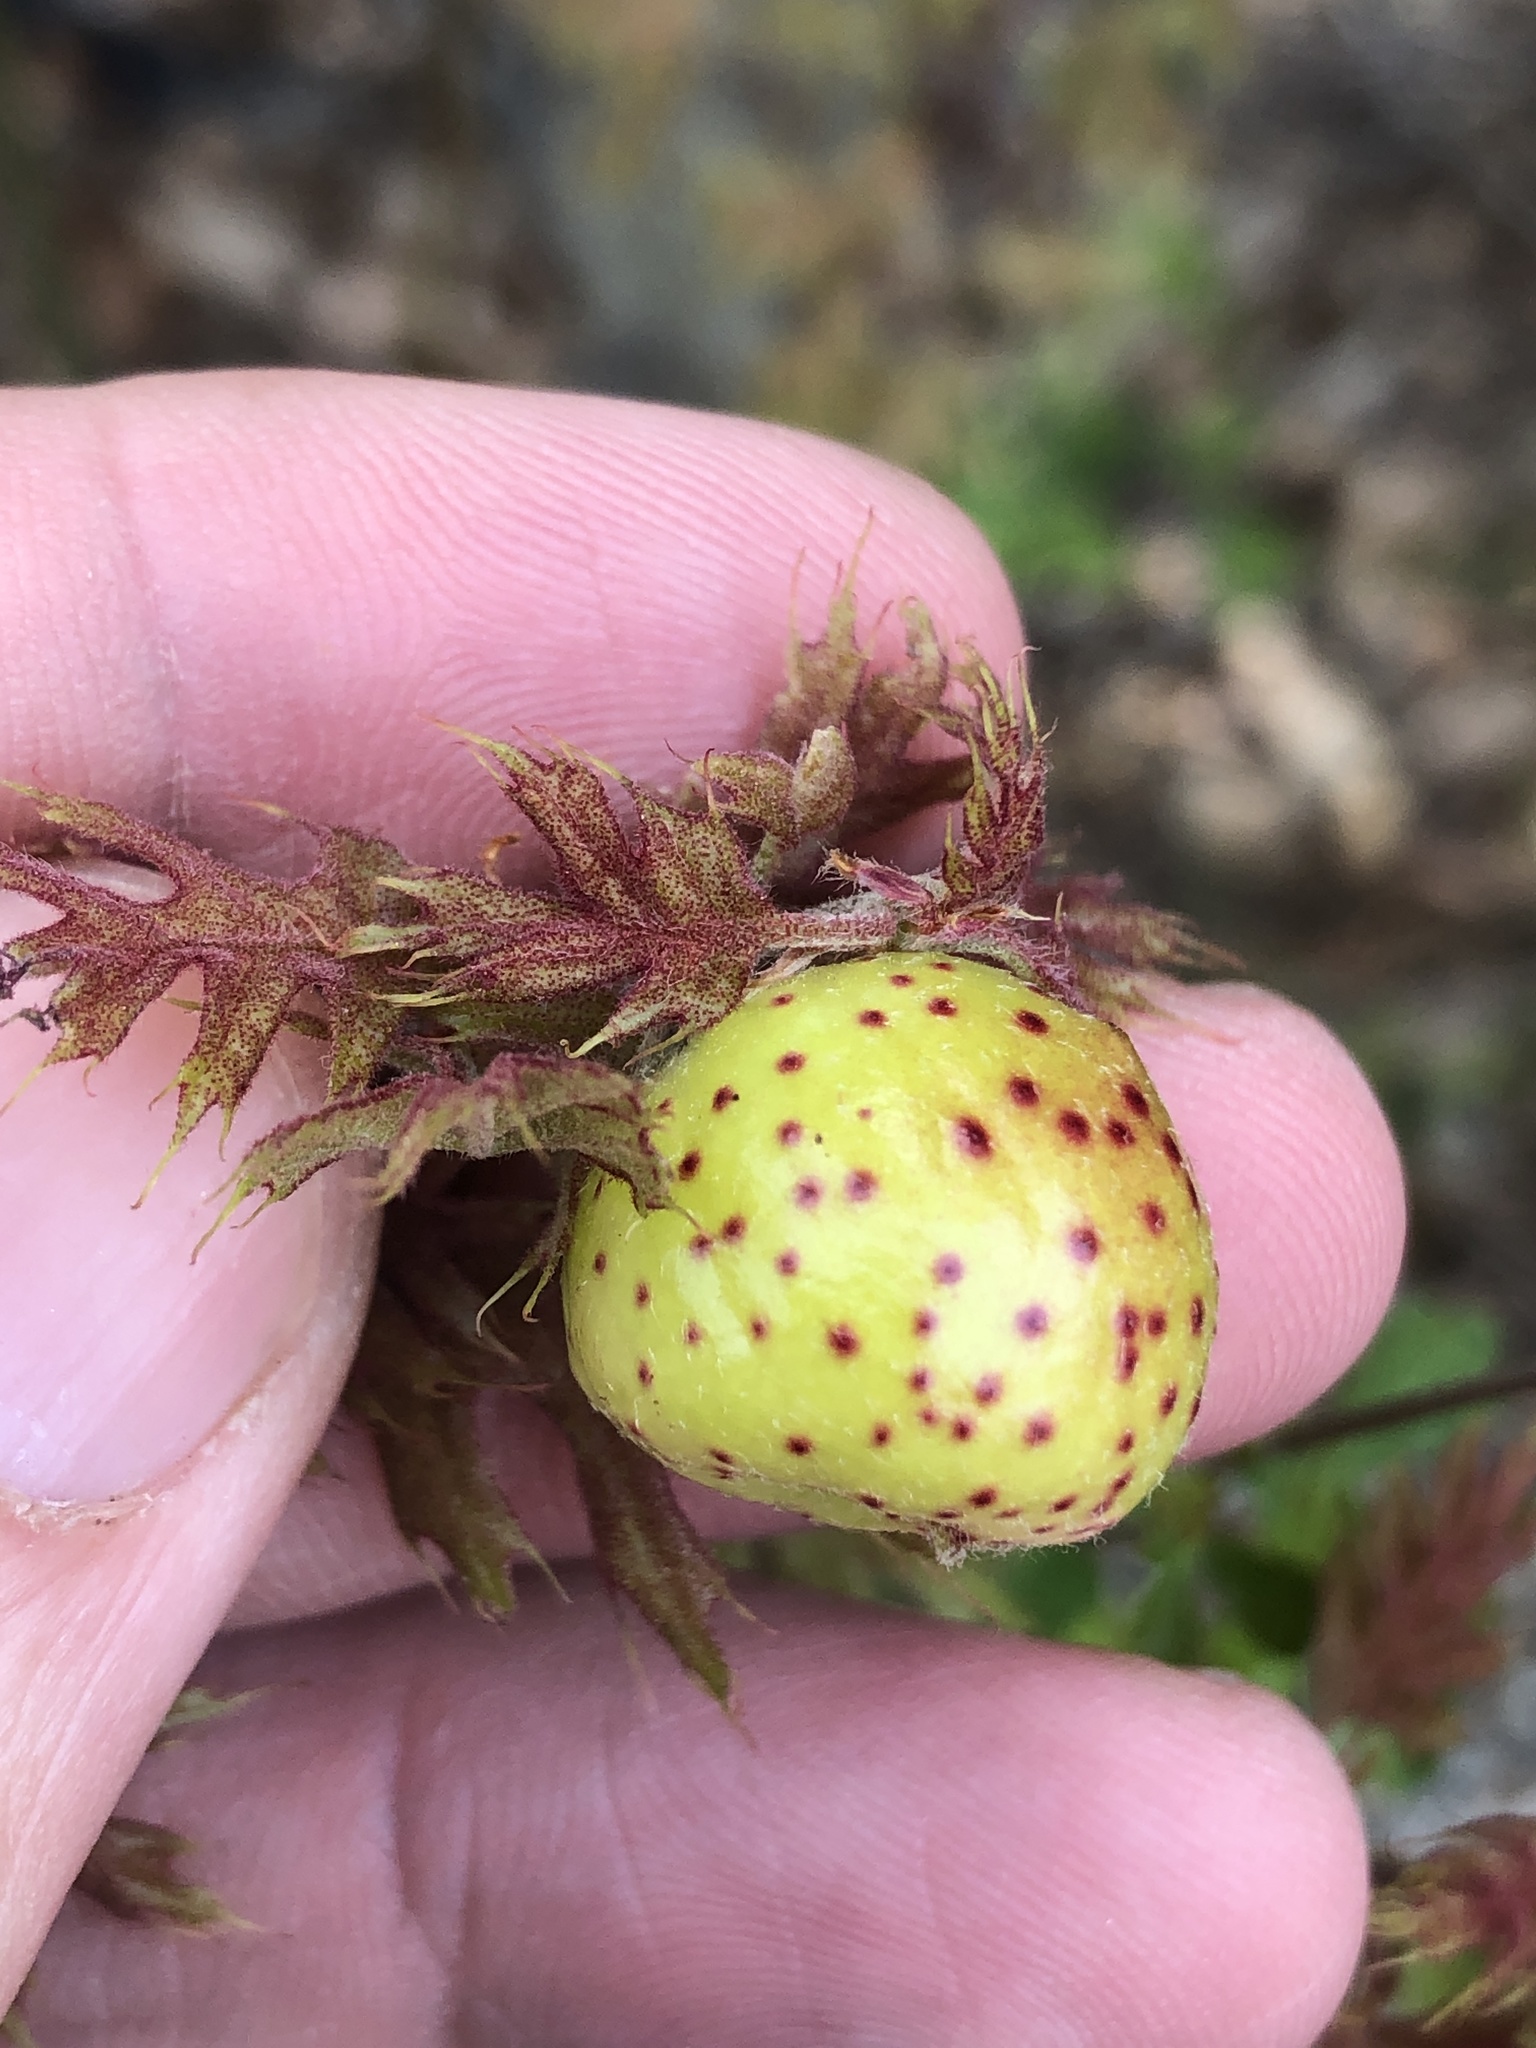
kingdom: Animalia
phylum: Arthropoda
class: Insecta
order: Hymenoptera
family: Cynipidae
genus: Amphibolips
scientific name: Amphibolips
